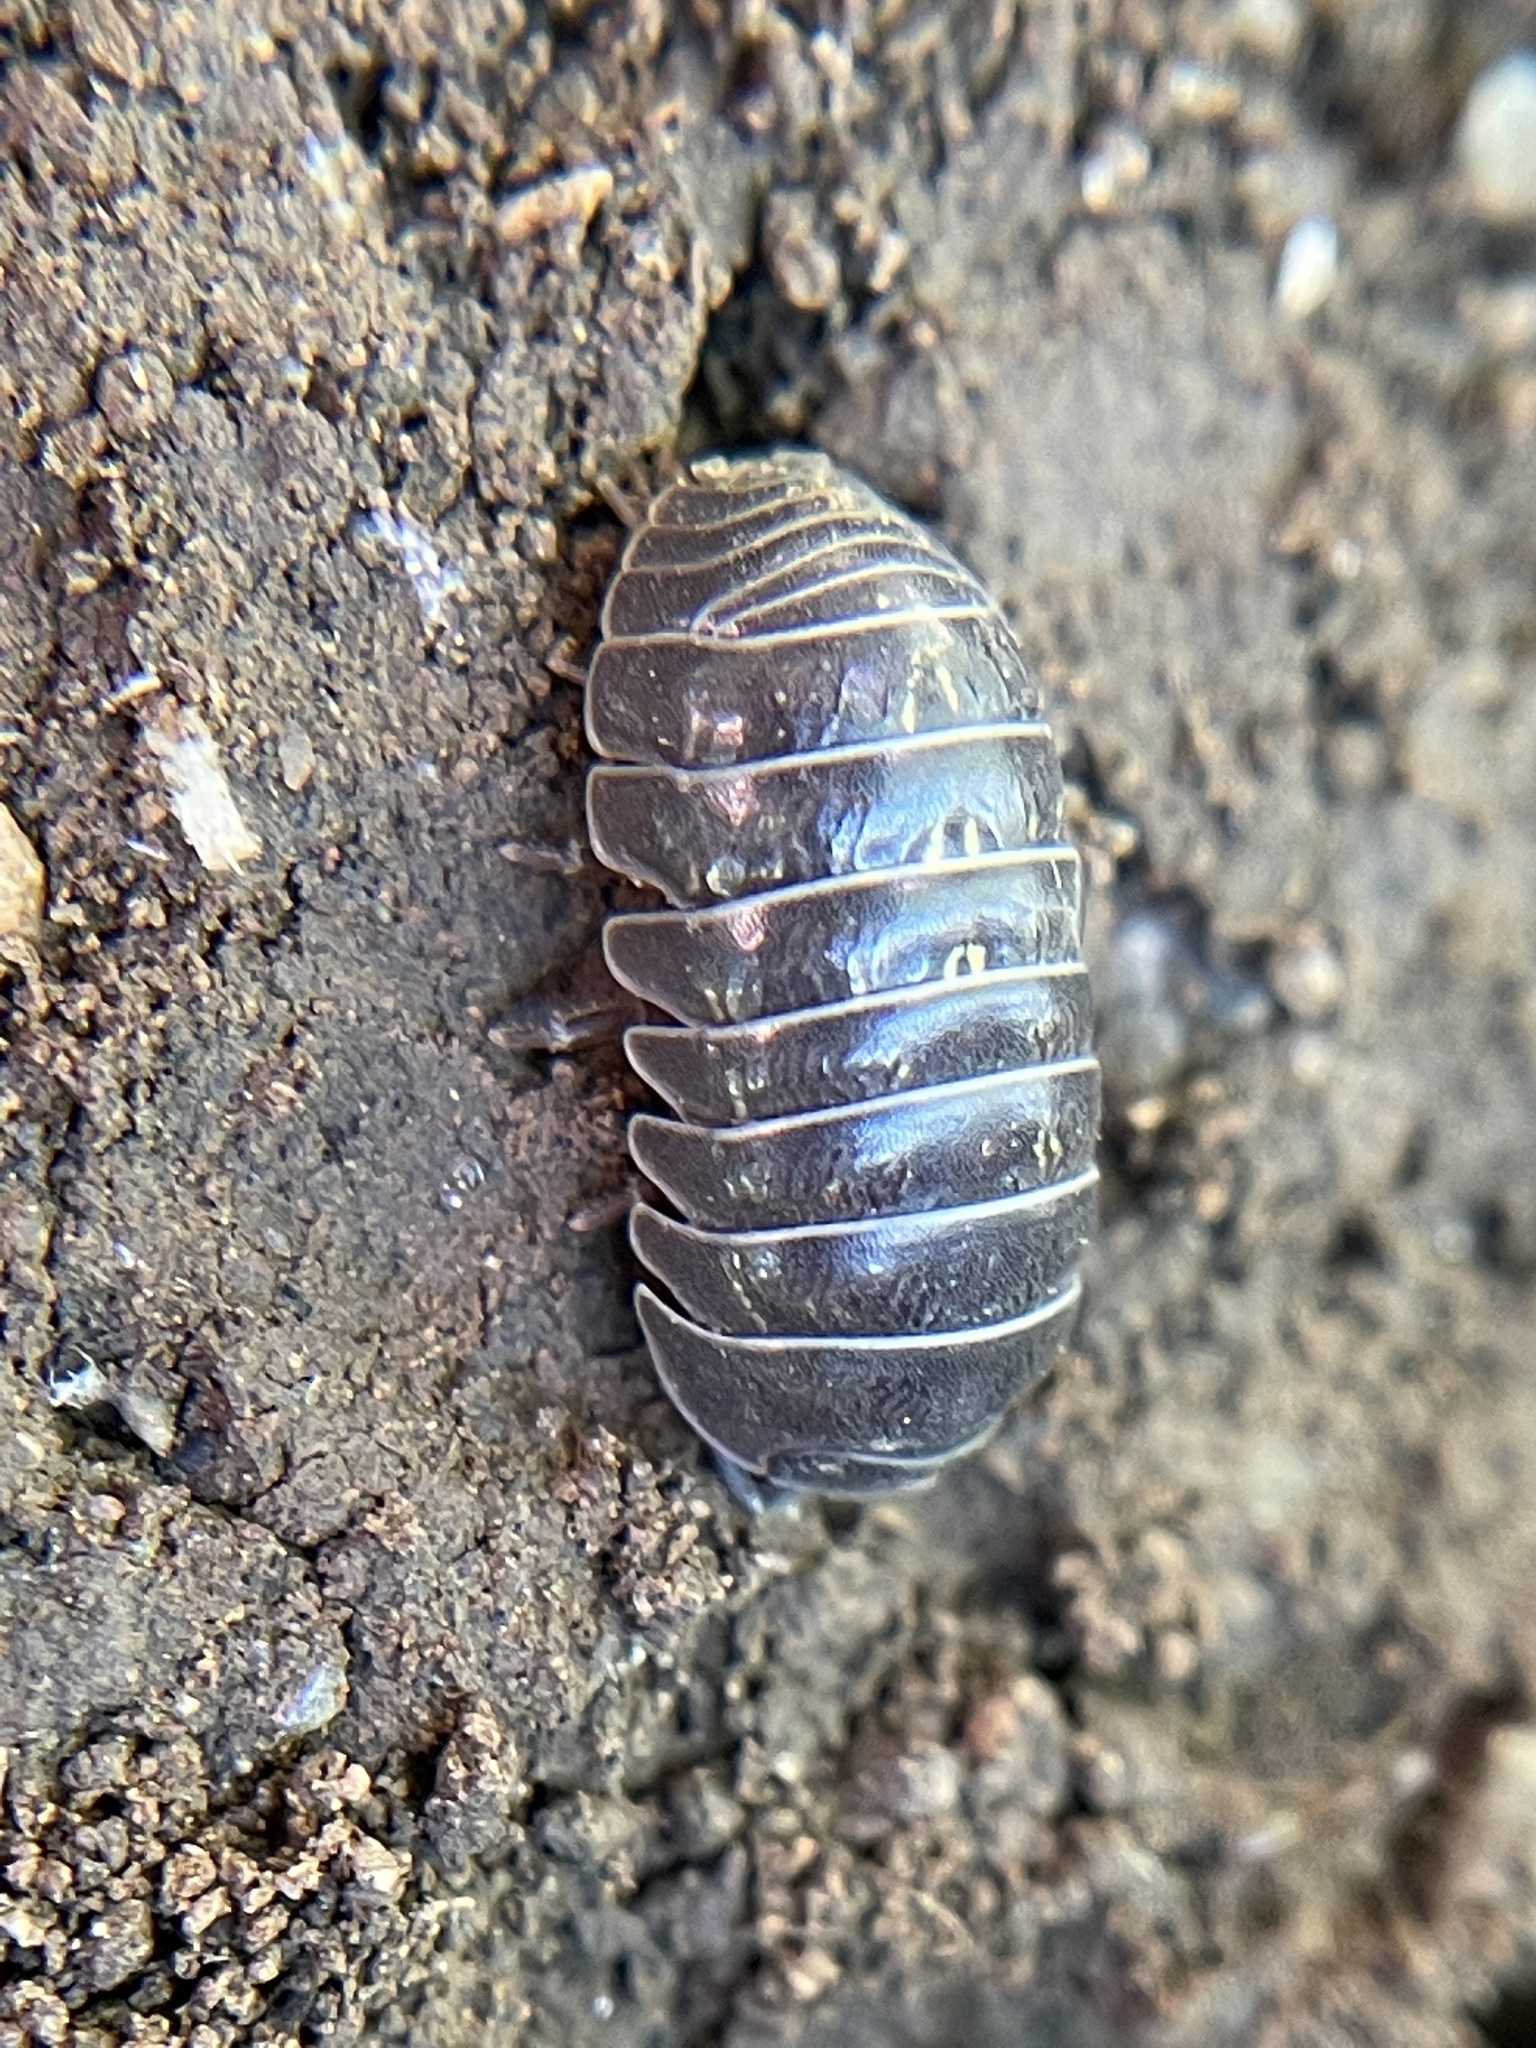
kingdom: Animalia
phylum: Arthropoda
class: Malacostraca
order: Isopoda
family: Armadillidiidae
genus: Armadillidium
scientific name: Armadillidium vulgare
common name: Common pill woodlouse
